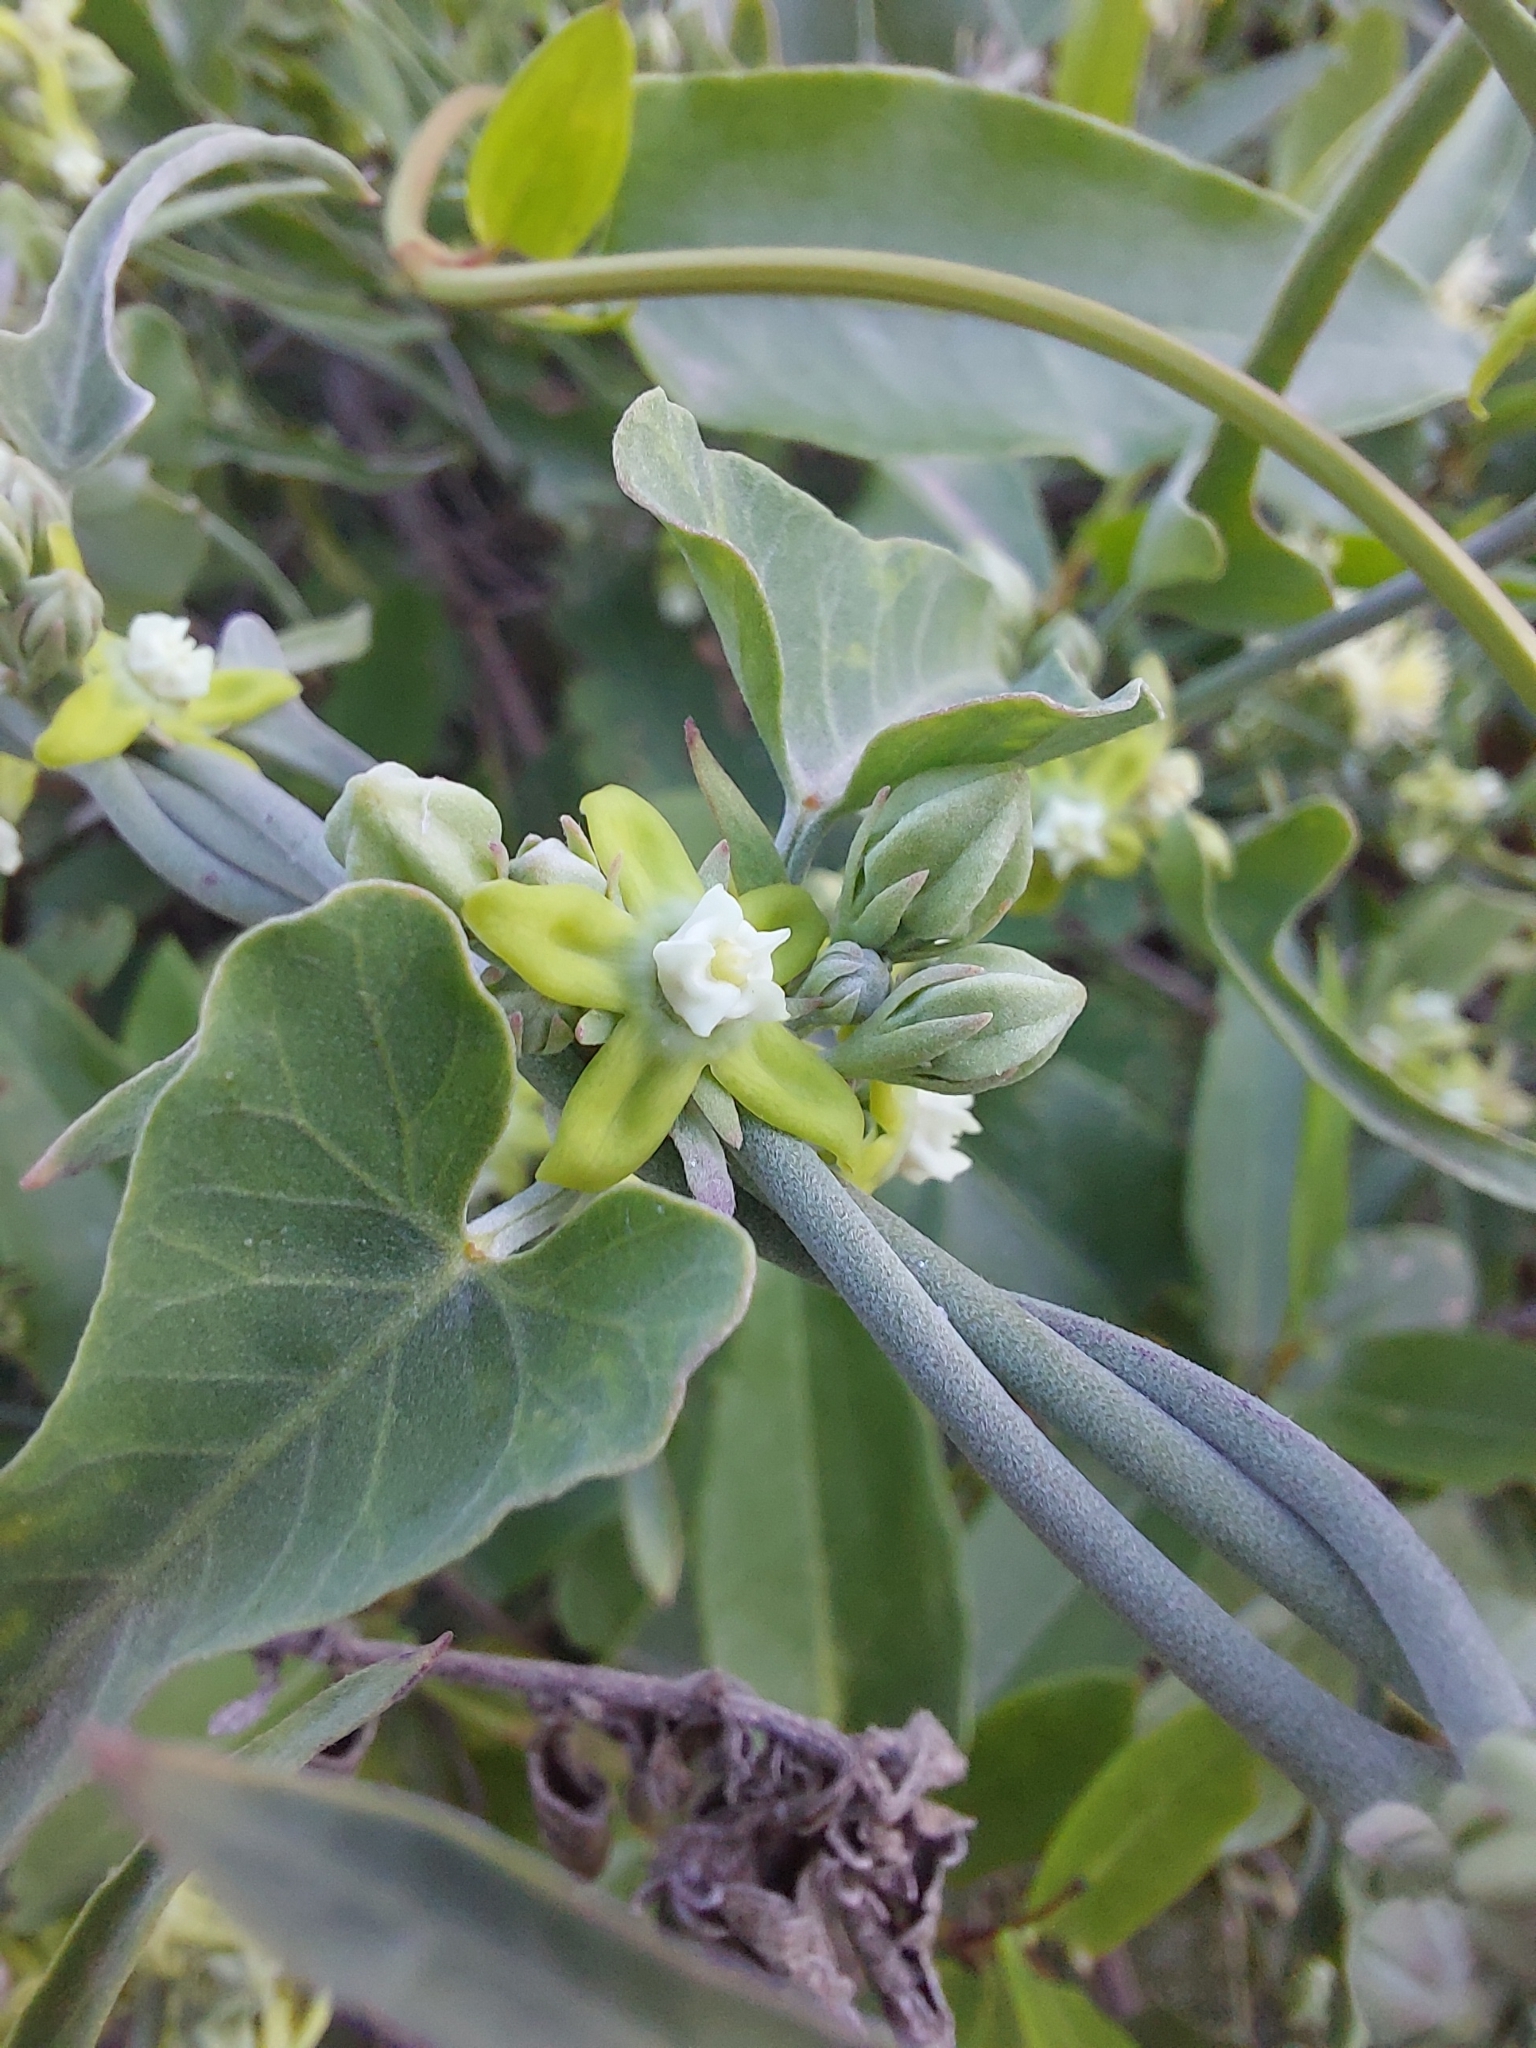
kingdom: Plantae
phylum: Tracheophyta
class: Magnoliopsida
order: Gentianales
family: Apocynaceae
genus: Araujia
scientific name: Araujia brachystephana
